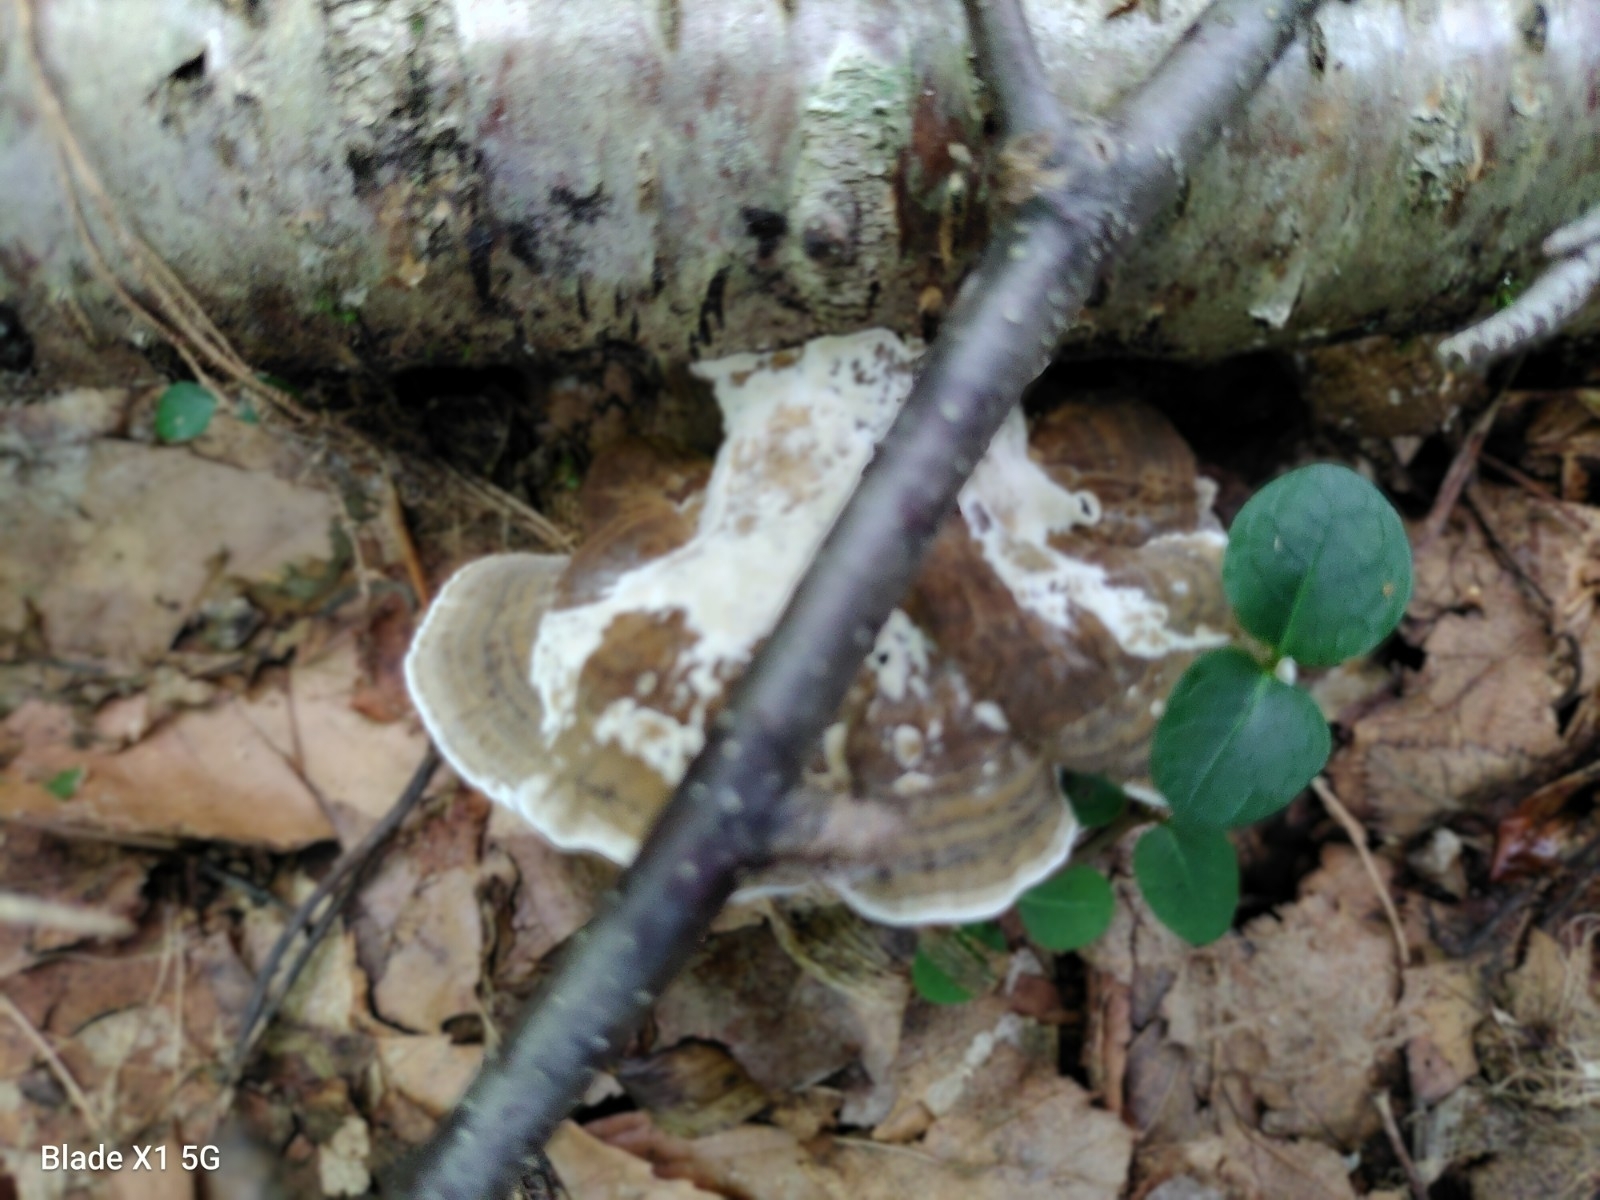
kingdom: Fungi
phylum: Basidiomycota
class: Agaricomycetes
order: Polyporales
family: Polyporaceae
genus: Daedaleopsis
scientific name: Daedaleopsis confragosa
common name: Blushing bracket
